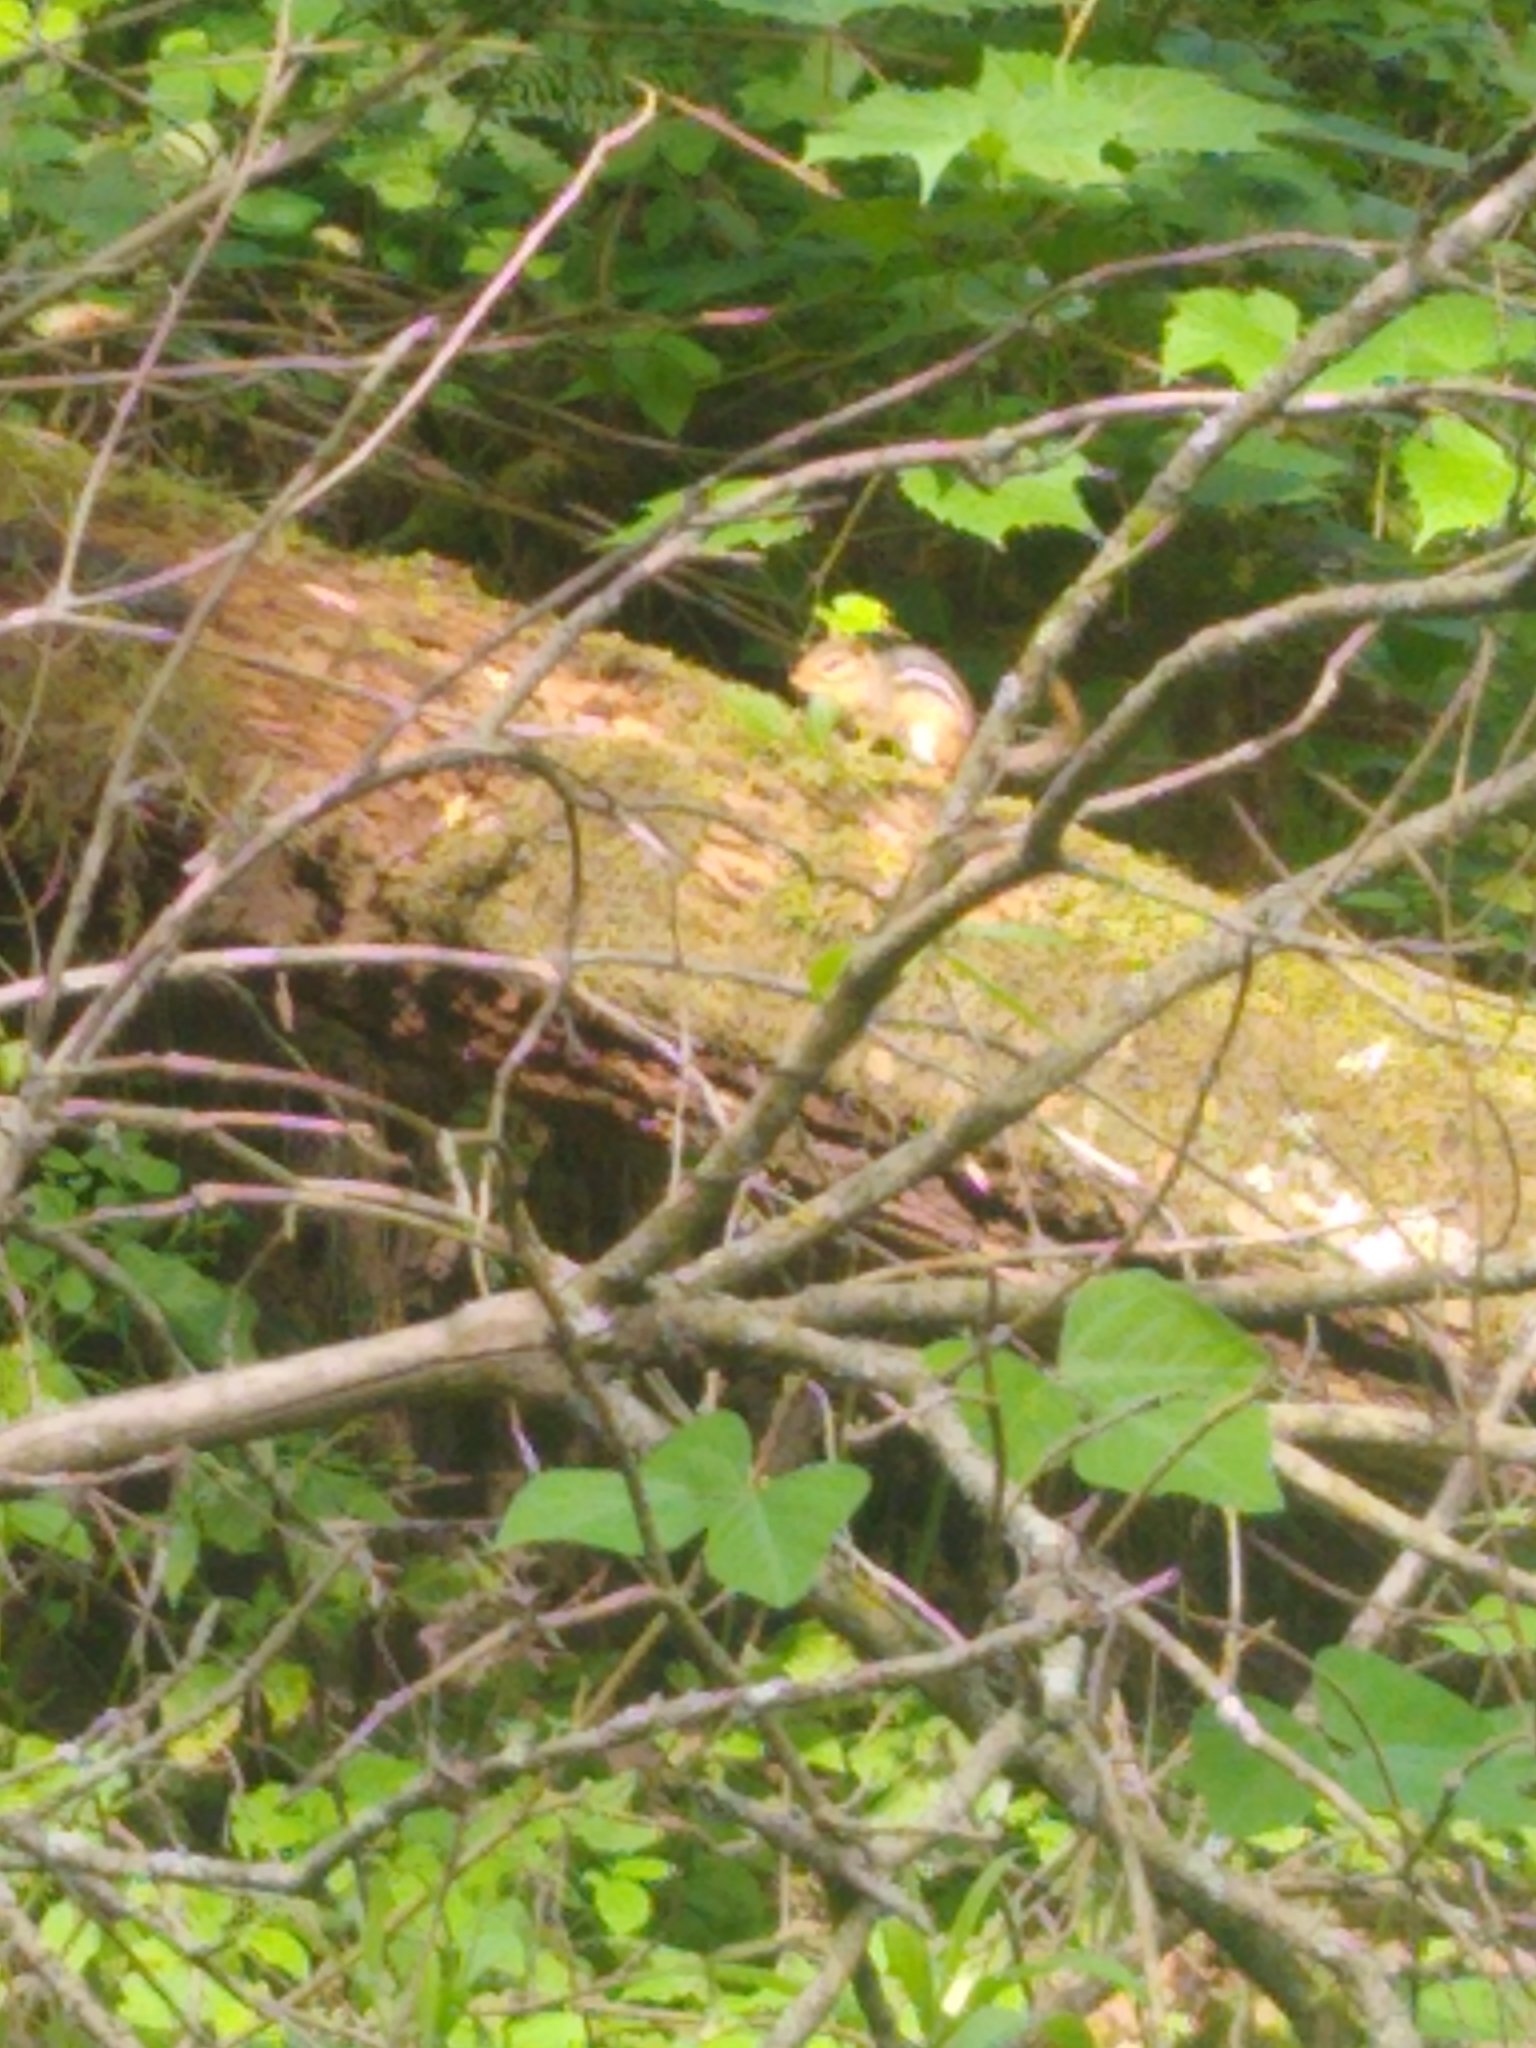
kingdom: Animalia
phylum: Chordata
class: Mammalia
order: Rodentia
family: Sciuridae
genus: Tamias
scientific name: Tamias striatus
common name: Eastern chipmunk
